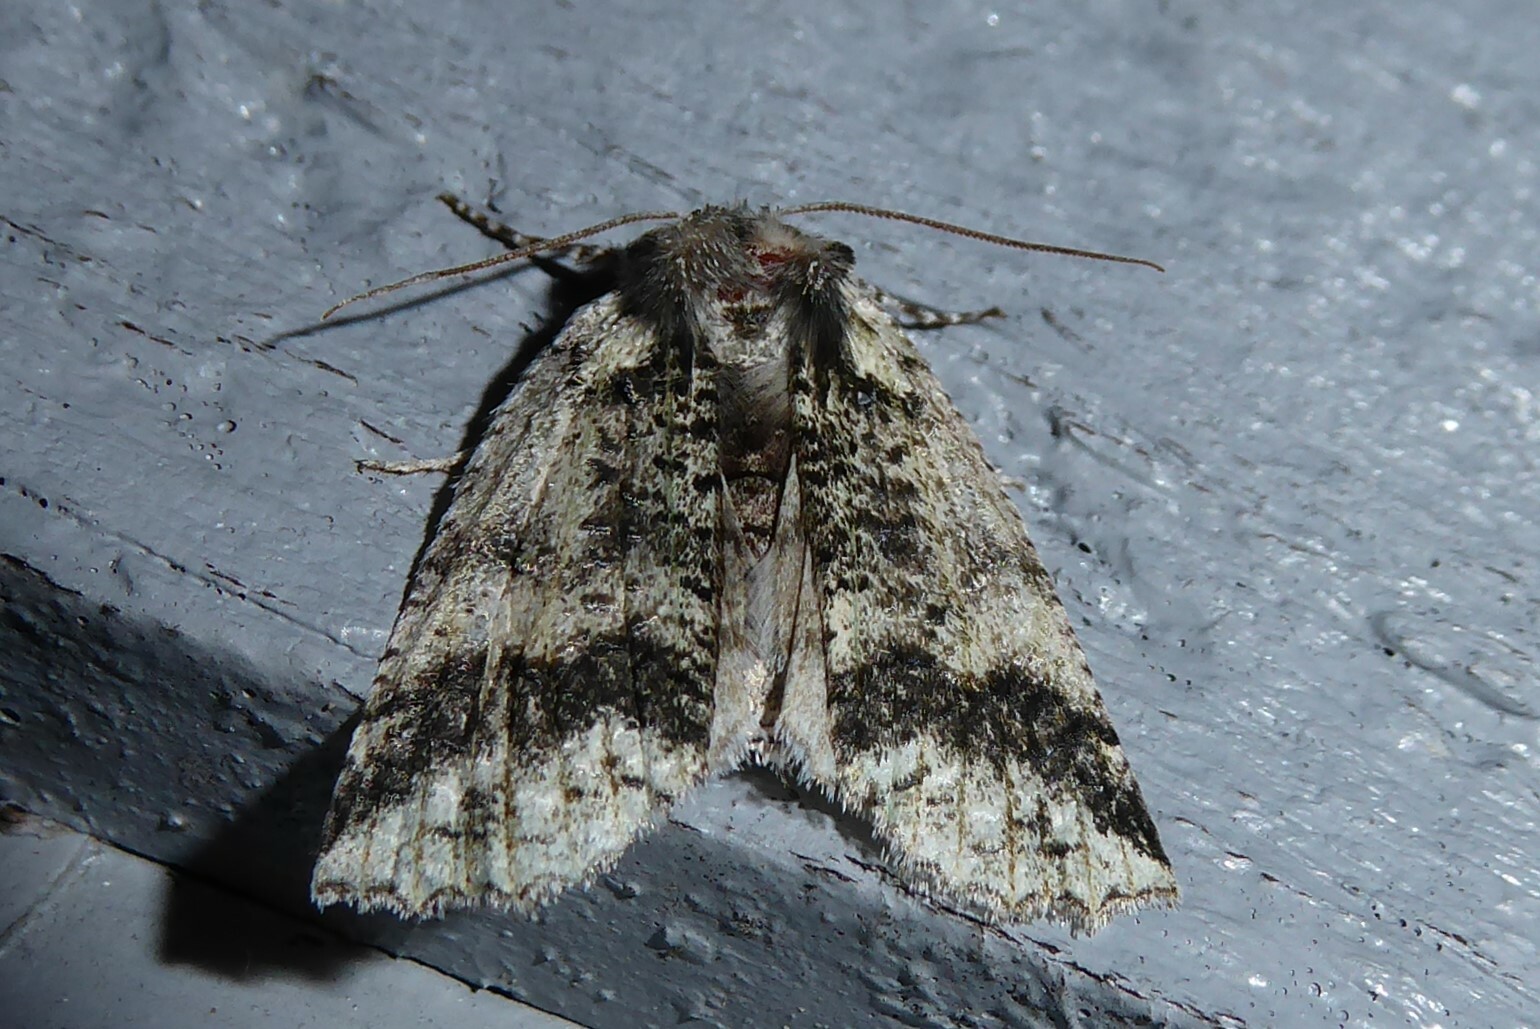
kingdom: Animalia
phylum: Arthropoda
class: Insecta
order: Lepidoptera
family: Geometridae
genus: Declana
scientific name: Declana floccosa
